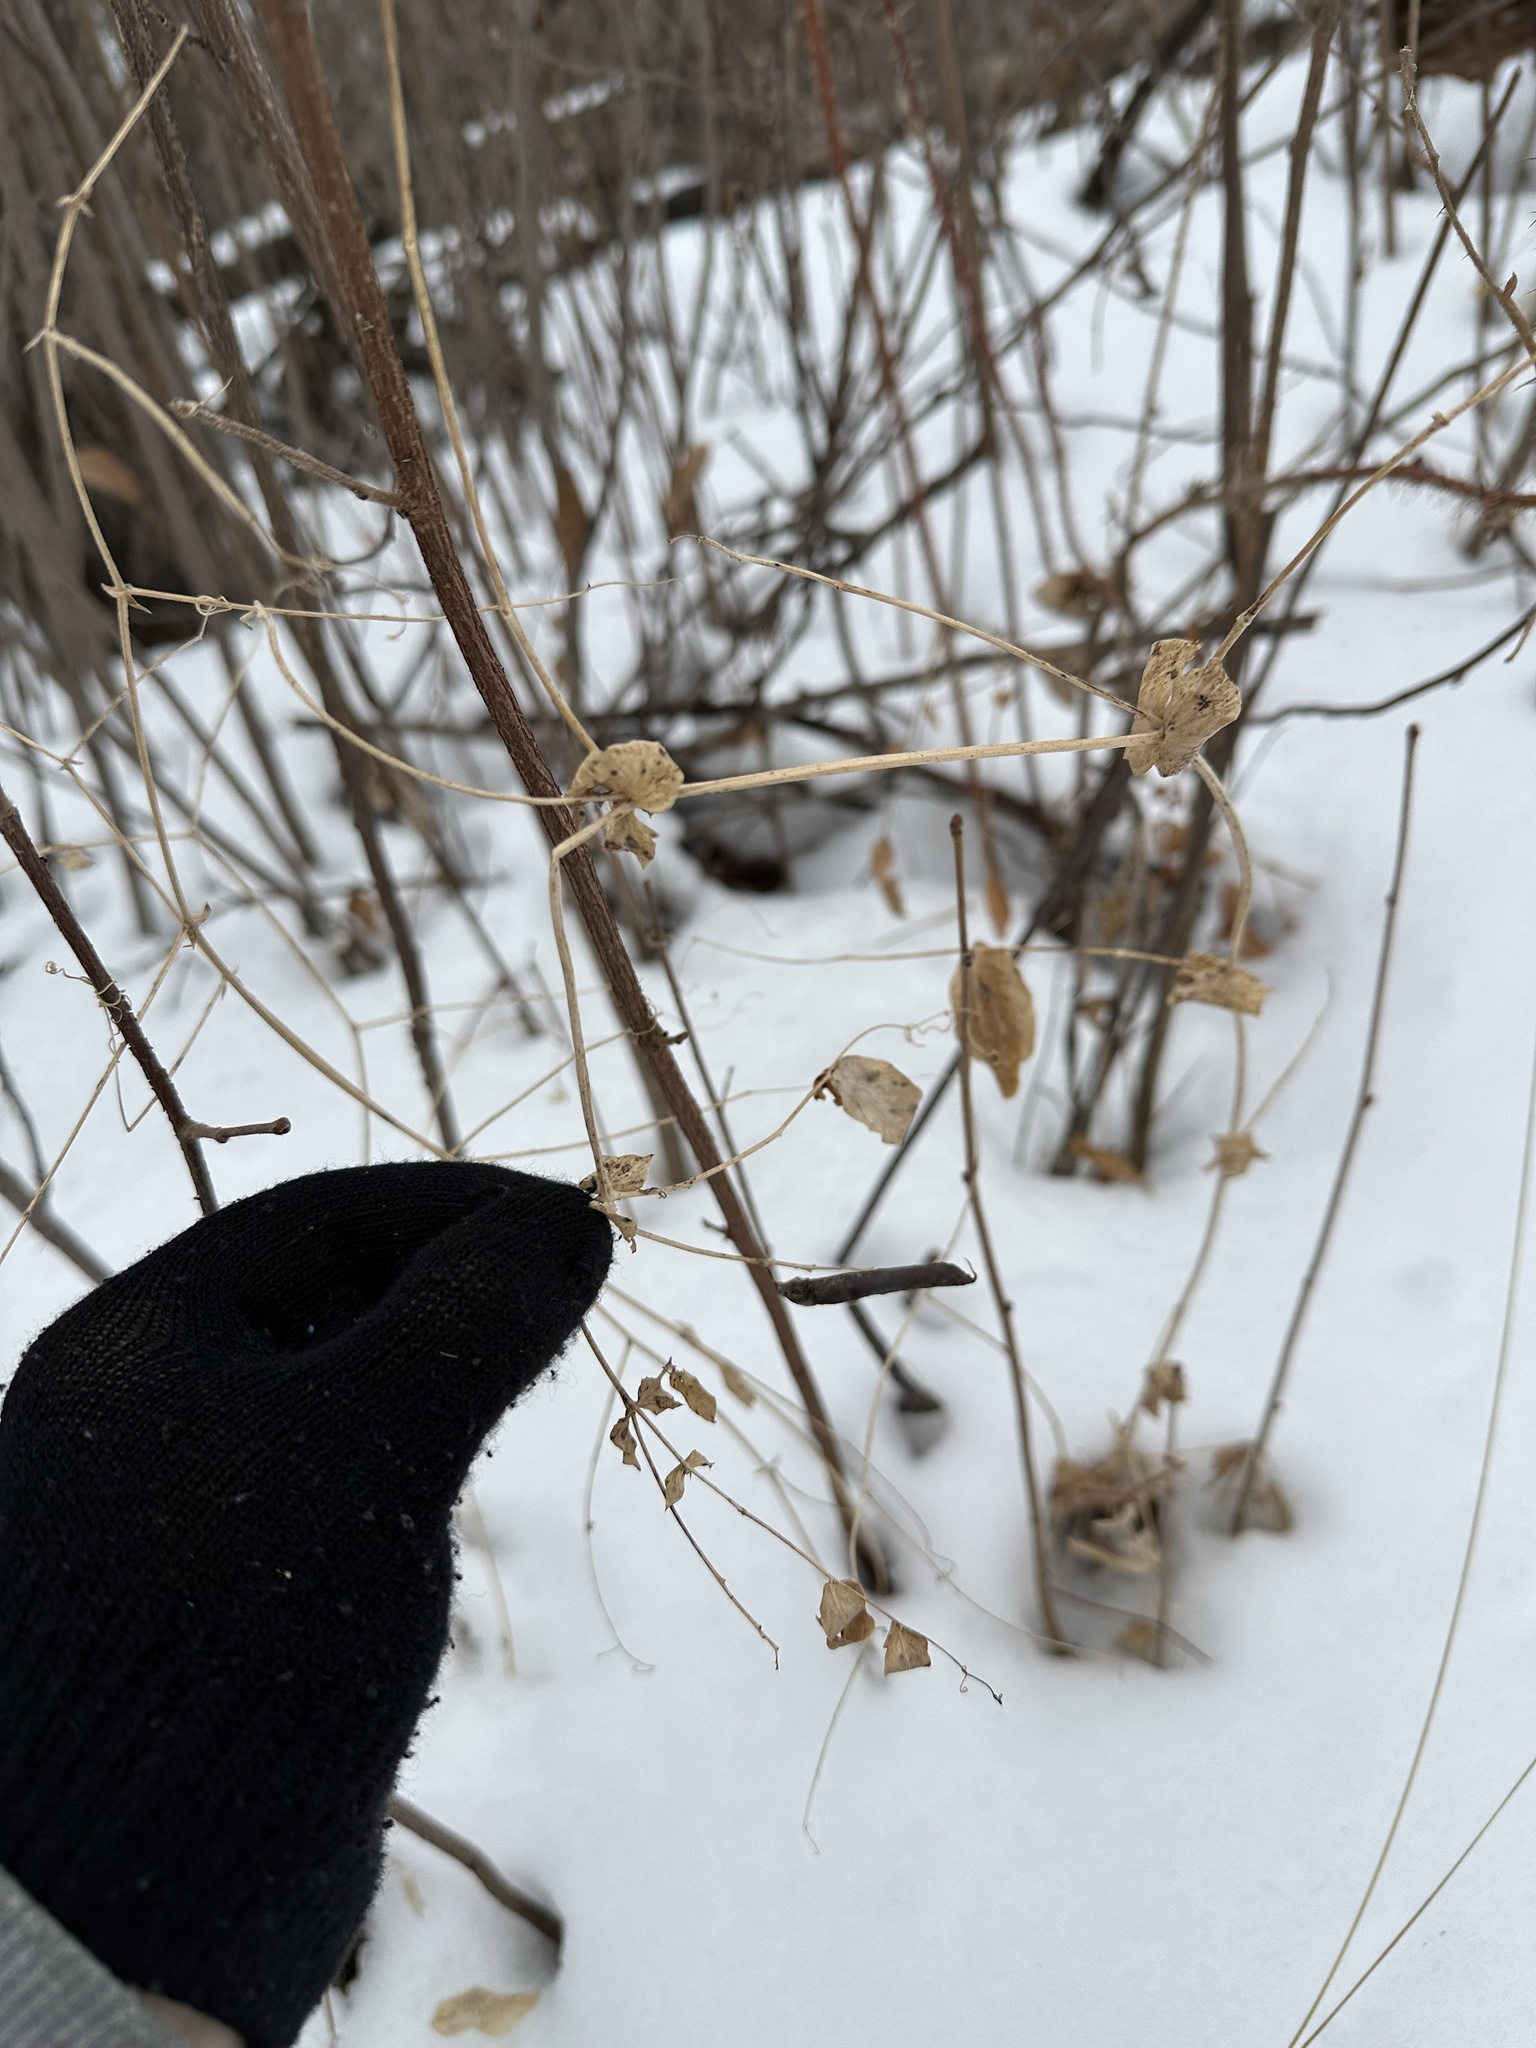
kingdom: Plantae
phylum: Tracheophyta
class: Magnoliopsida
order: Fabales
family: Fabaceae
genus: Lathyrus
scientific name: Lathyrus ochroleucus
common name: Pale vetchling
